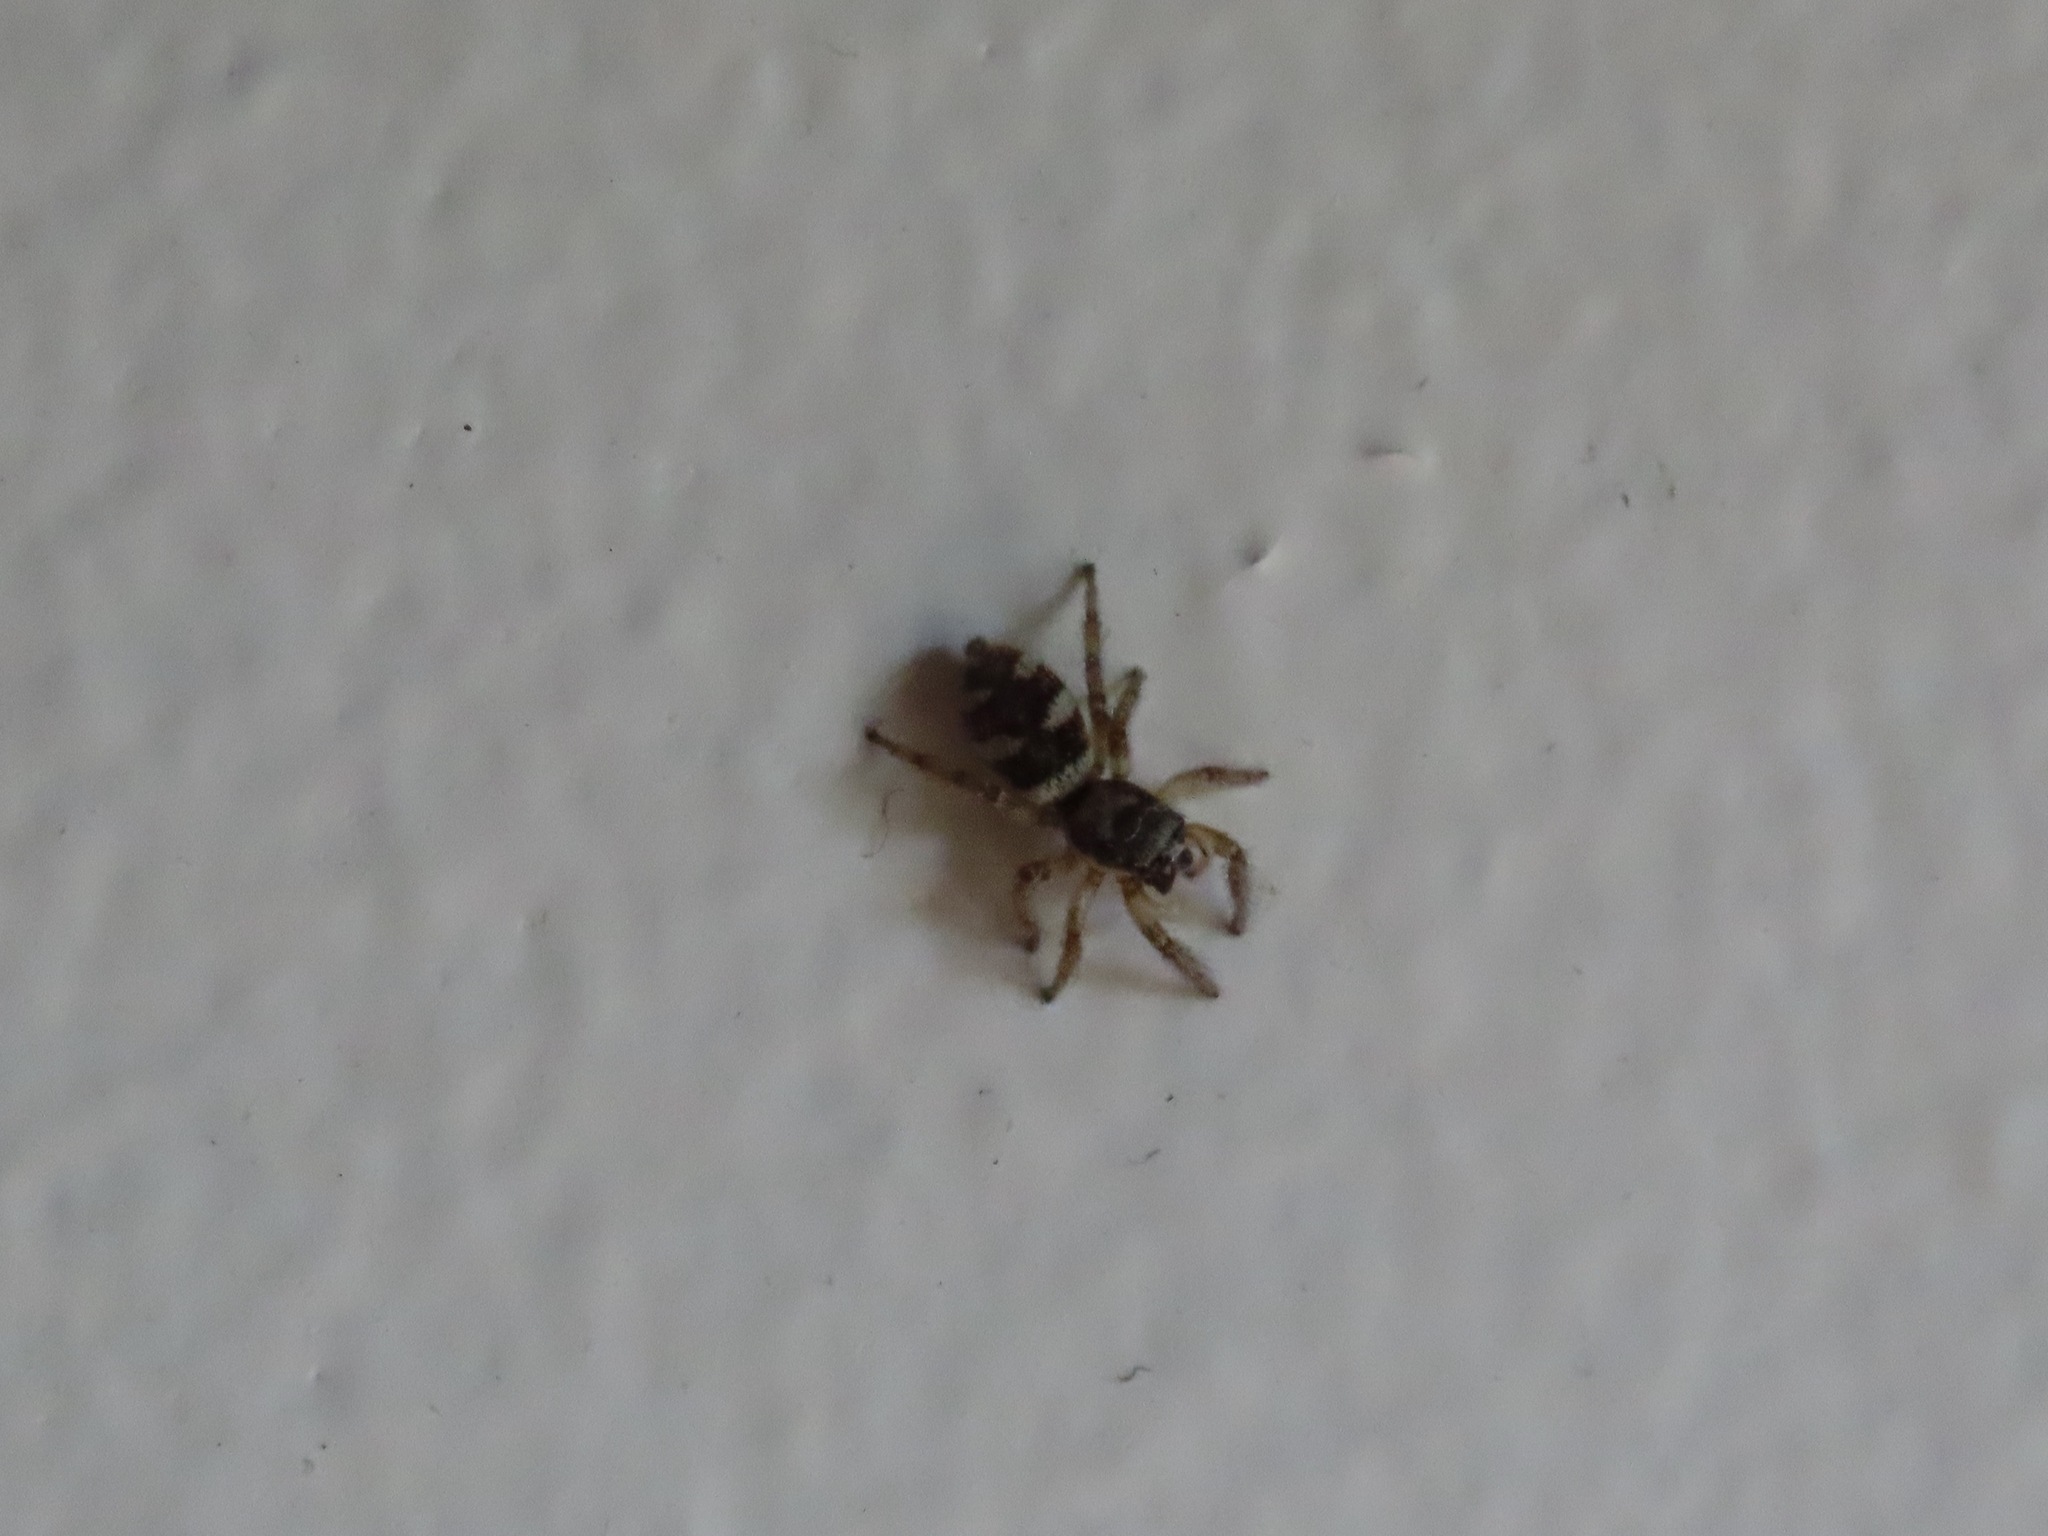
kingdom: Animalia
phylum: Arthropoda
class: Arachnida
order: Araneae
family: Salticidae
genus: Salticus
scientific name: Salticus scenicus
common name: Zebra jumper
